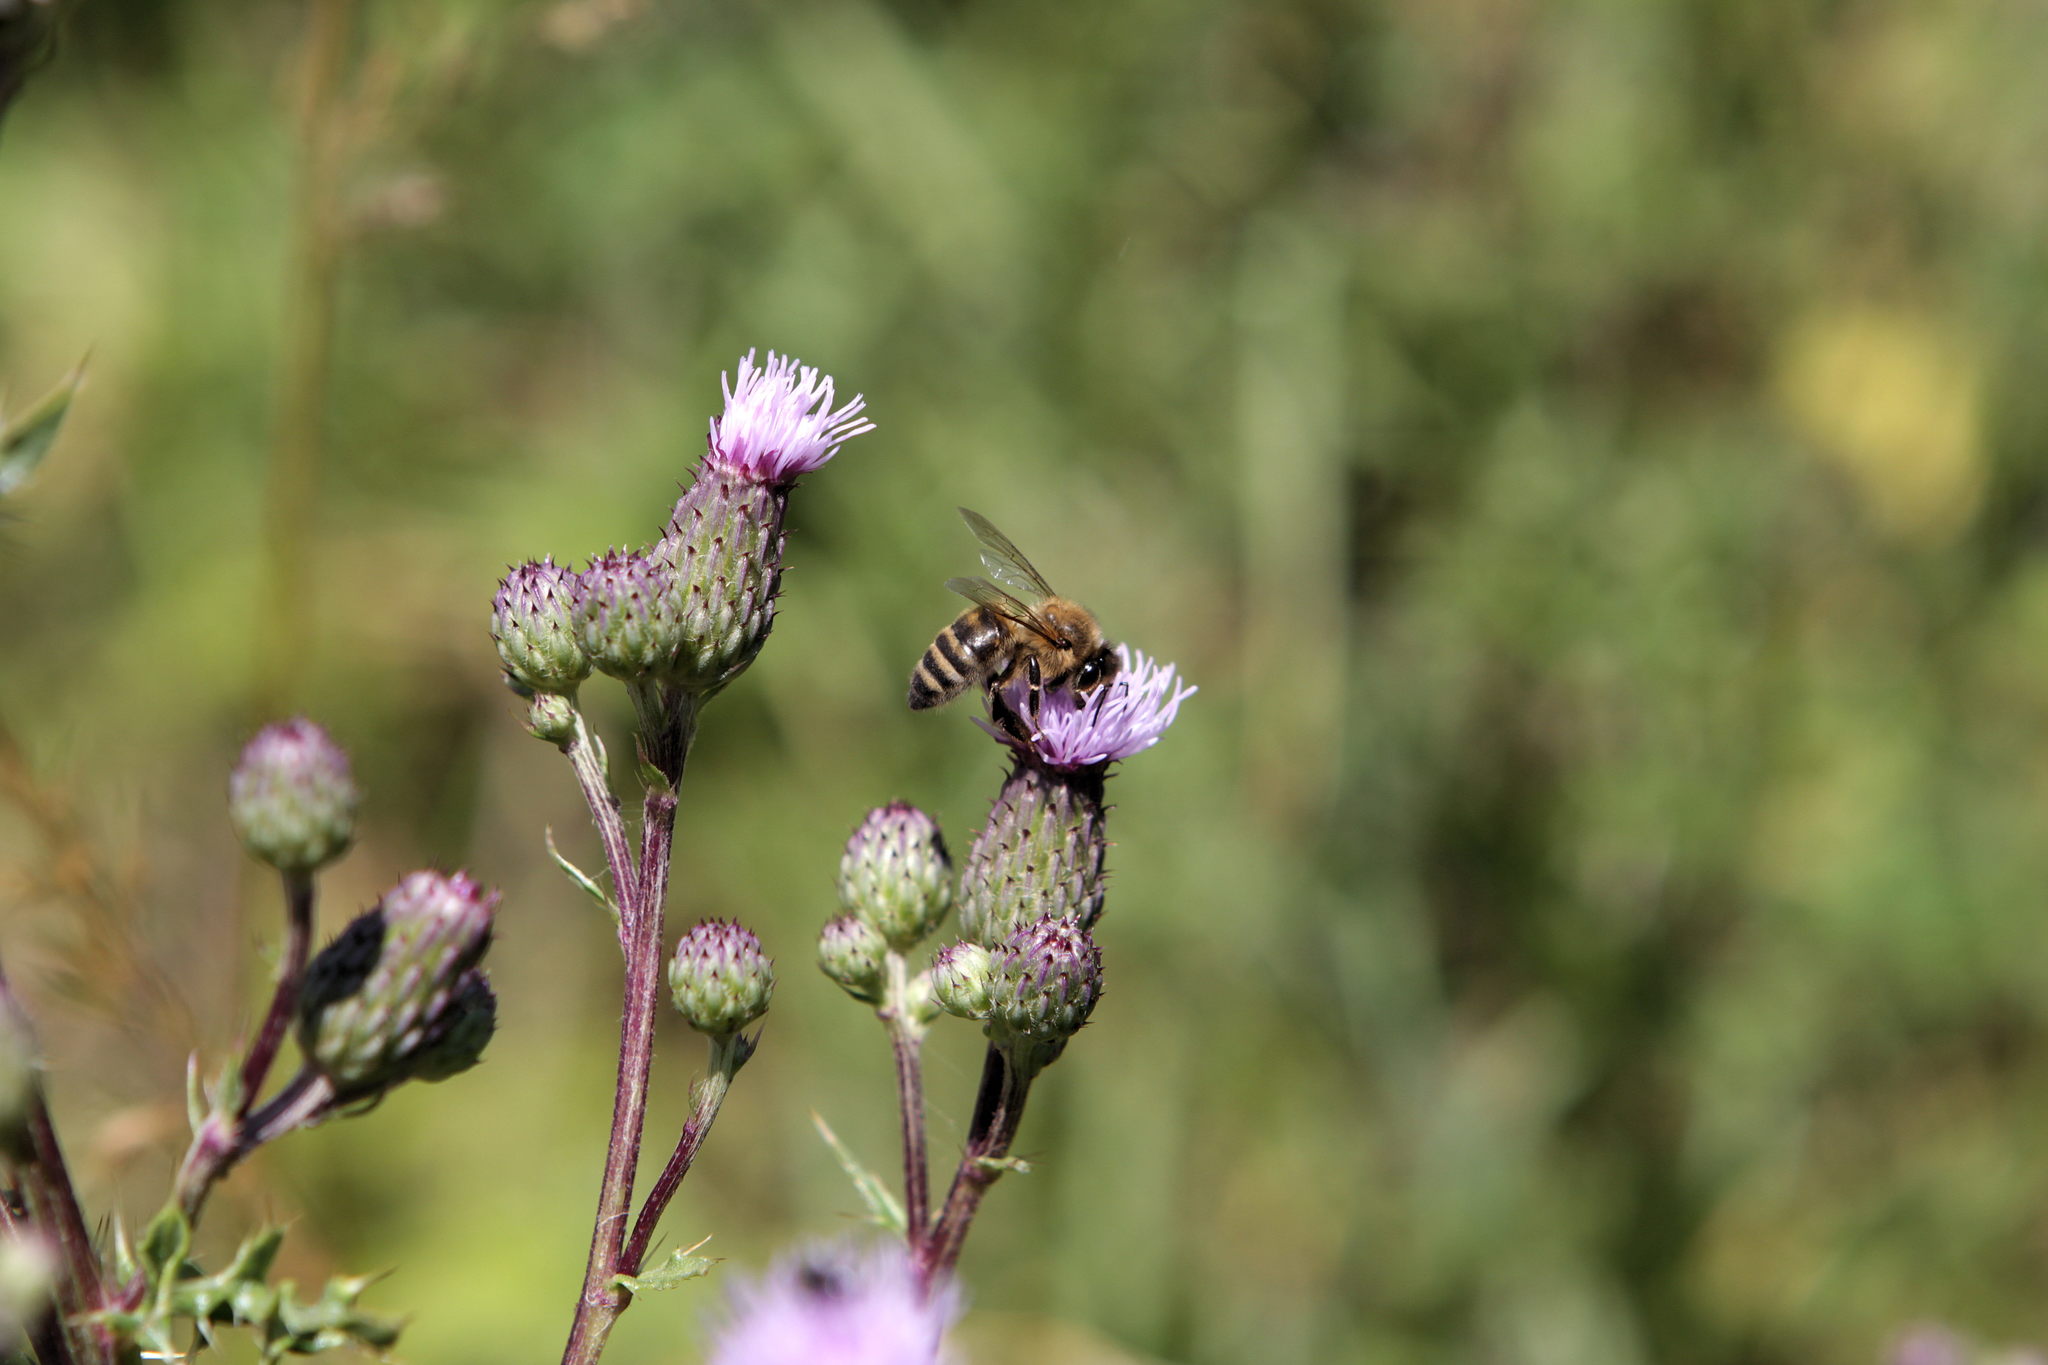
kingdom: Animalia
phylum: Arthropoda
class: Insecta
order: Hymenoptera
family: Apidae
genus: Apis
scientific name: Apis mellifera
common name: Honey bee
